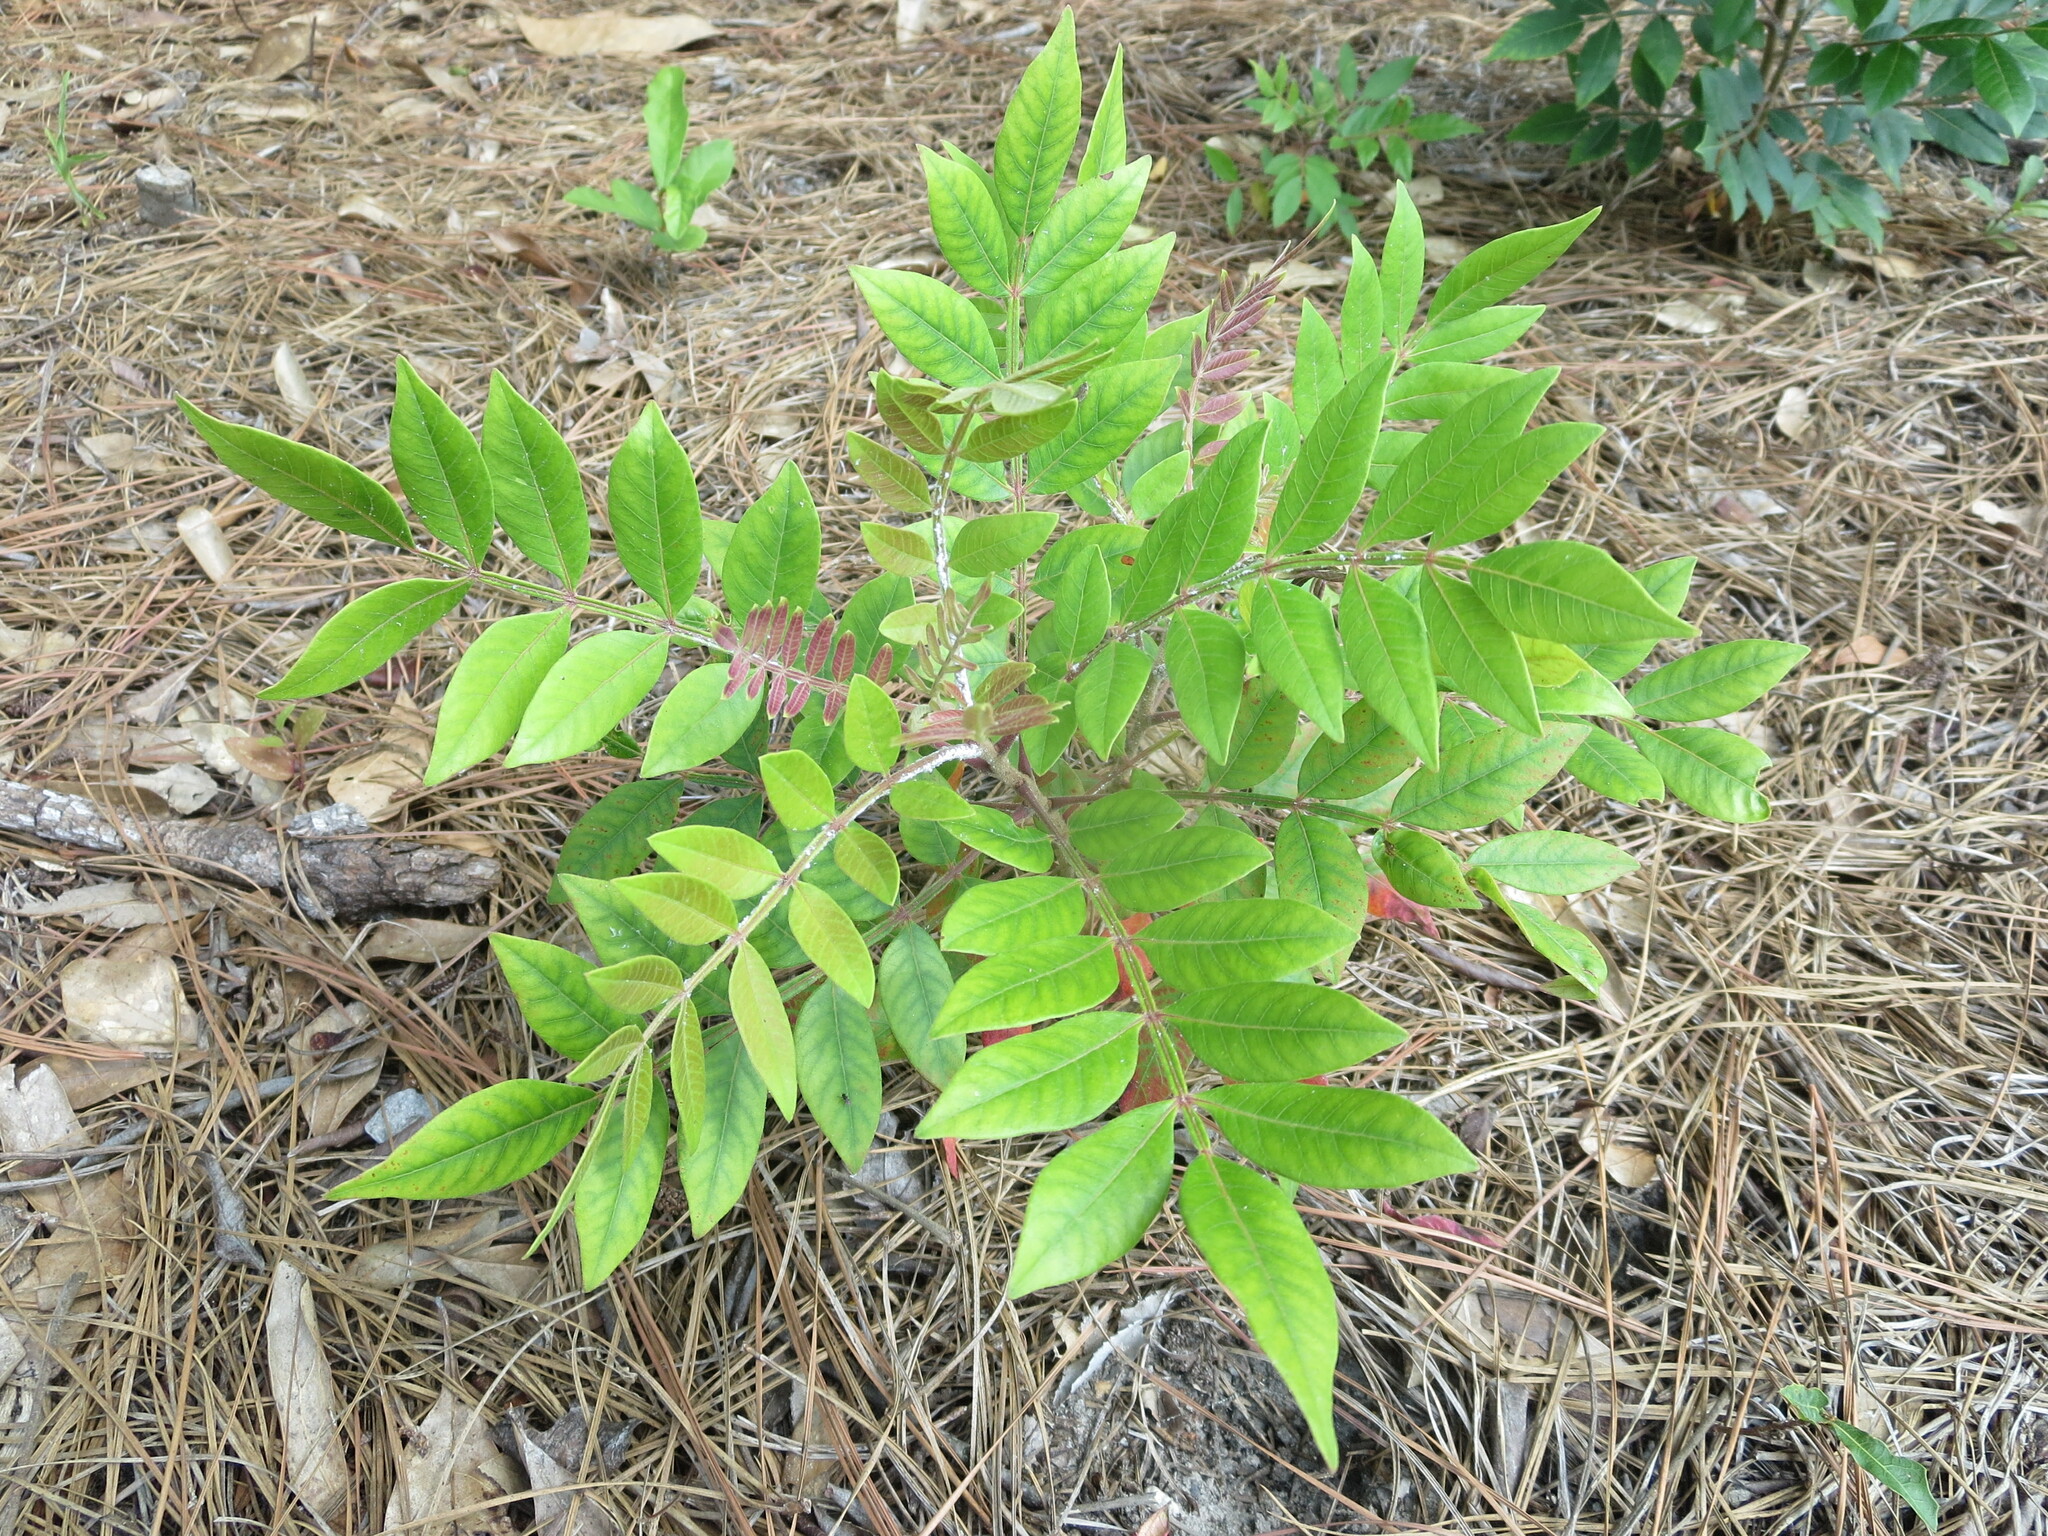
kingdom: Plantae
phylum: Tracheophyta
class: Magnoliopsida
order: Sapindales
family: Anacardiaceae
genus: Rhus
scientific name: Rhus copallina
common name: Shining sumac
